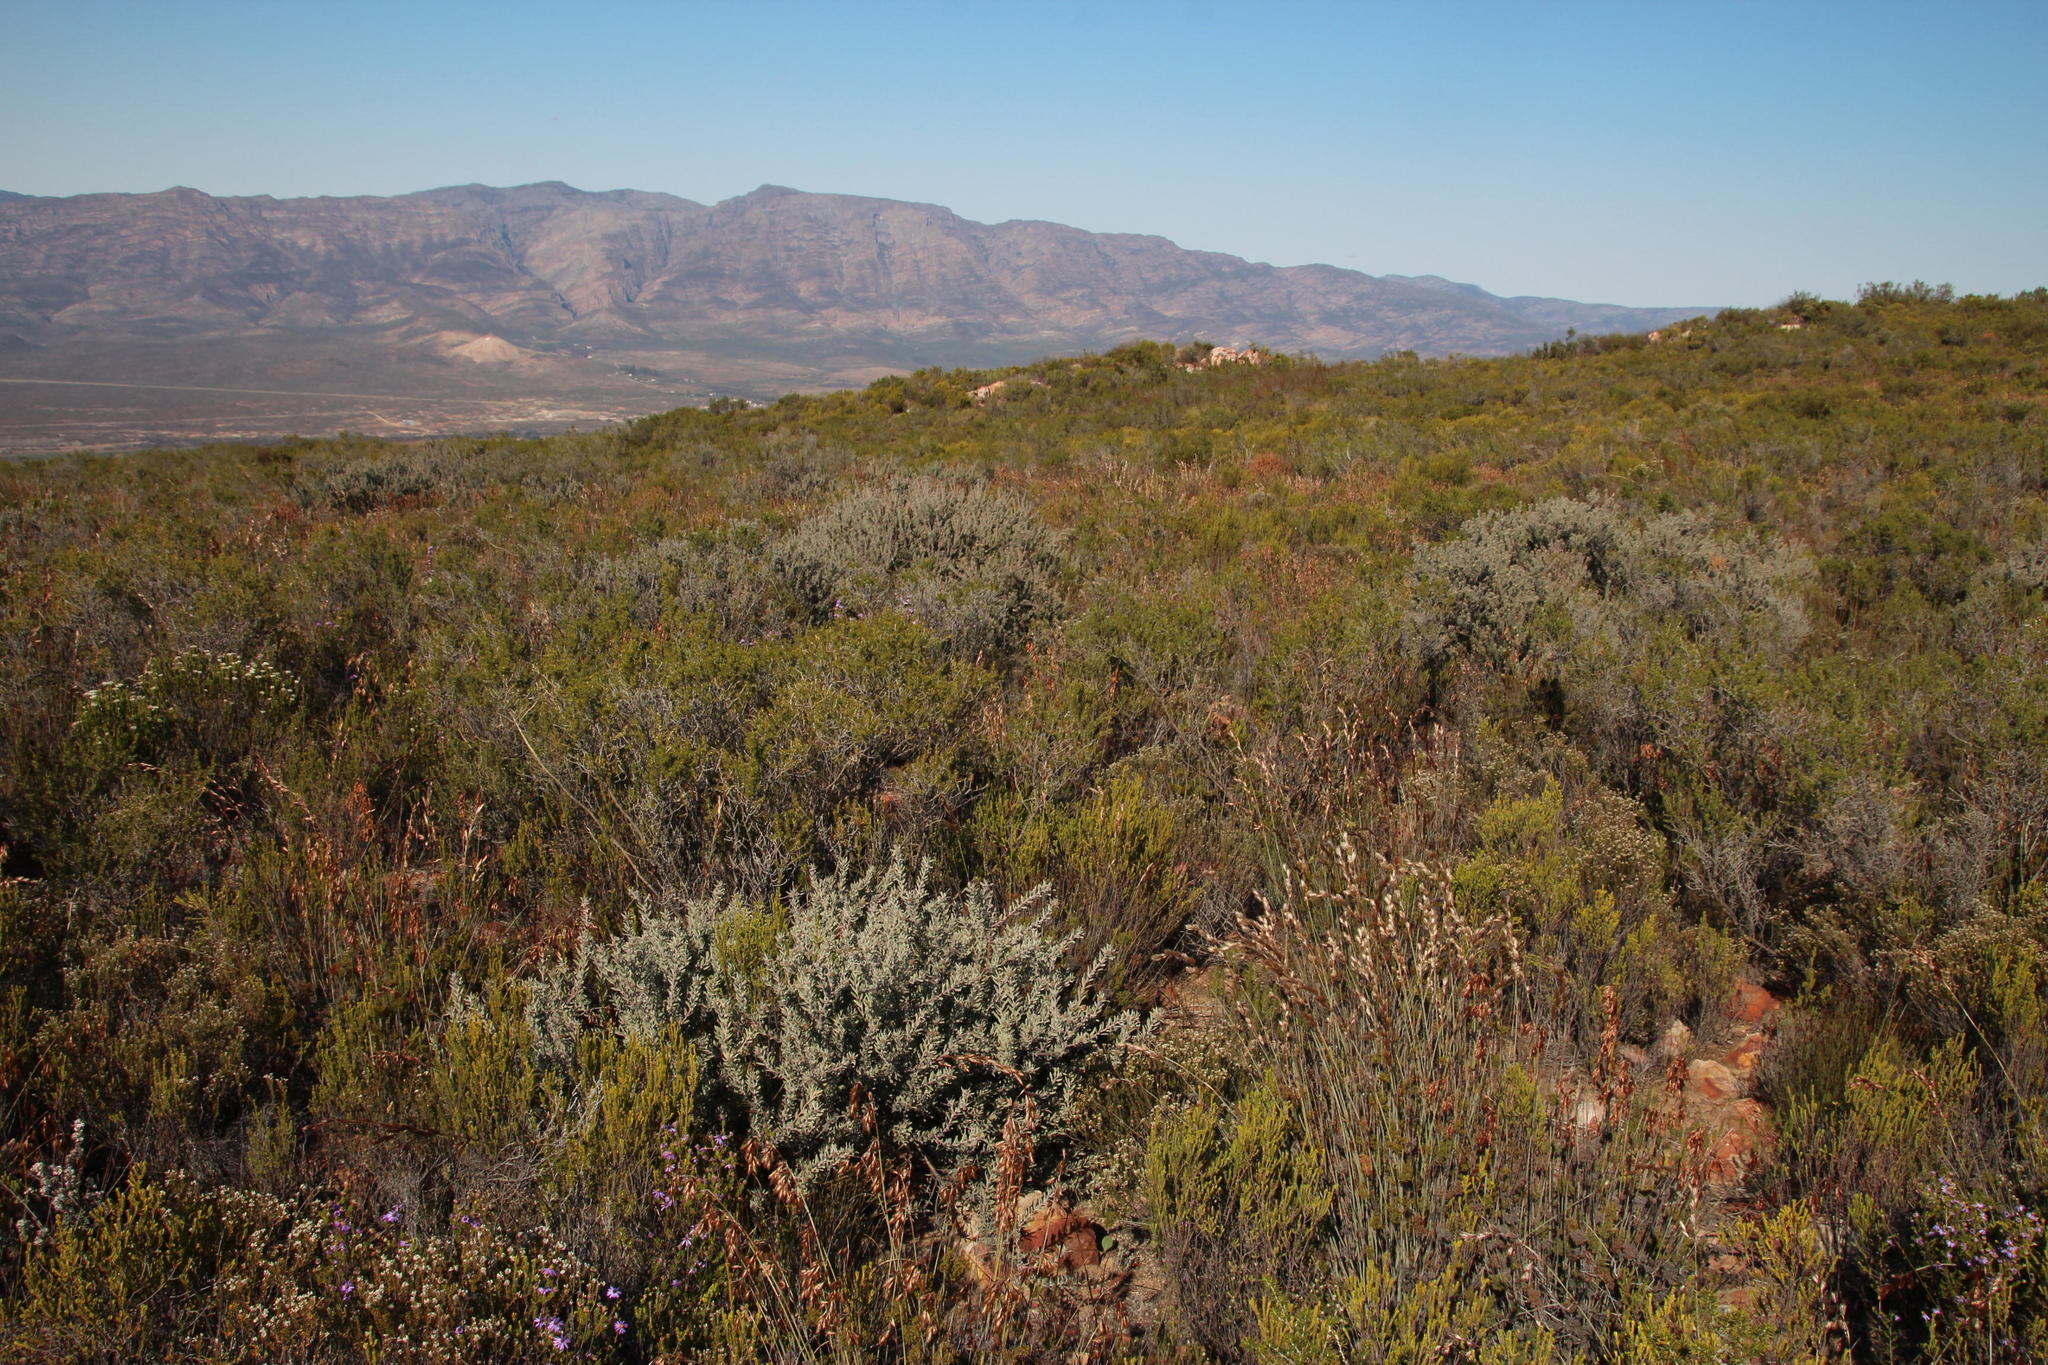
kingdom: Plantae
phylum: Tracheophyta
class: Magnoliopsida
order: Proteales
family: Proteaceae
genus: Leucospermum
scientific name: Leucospermum wittebergense
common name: Swartberg pincushion
